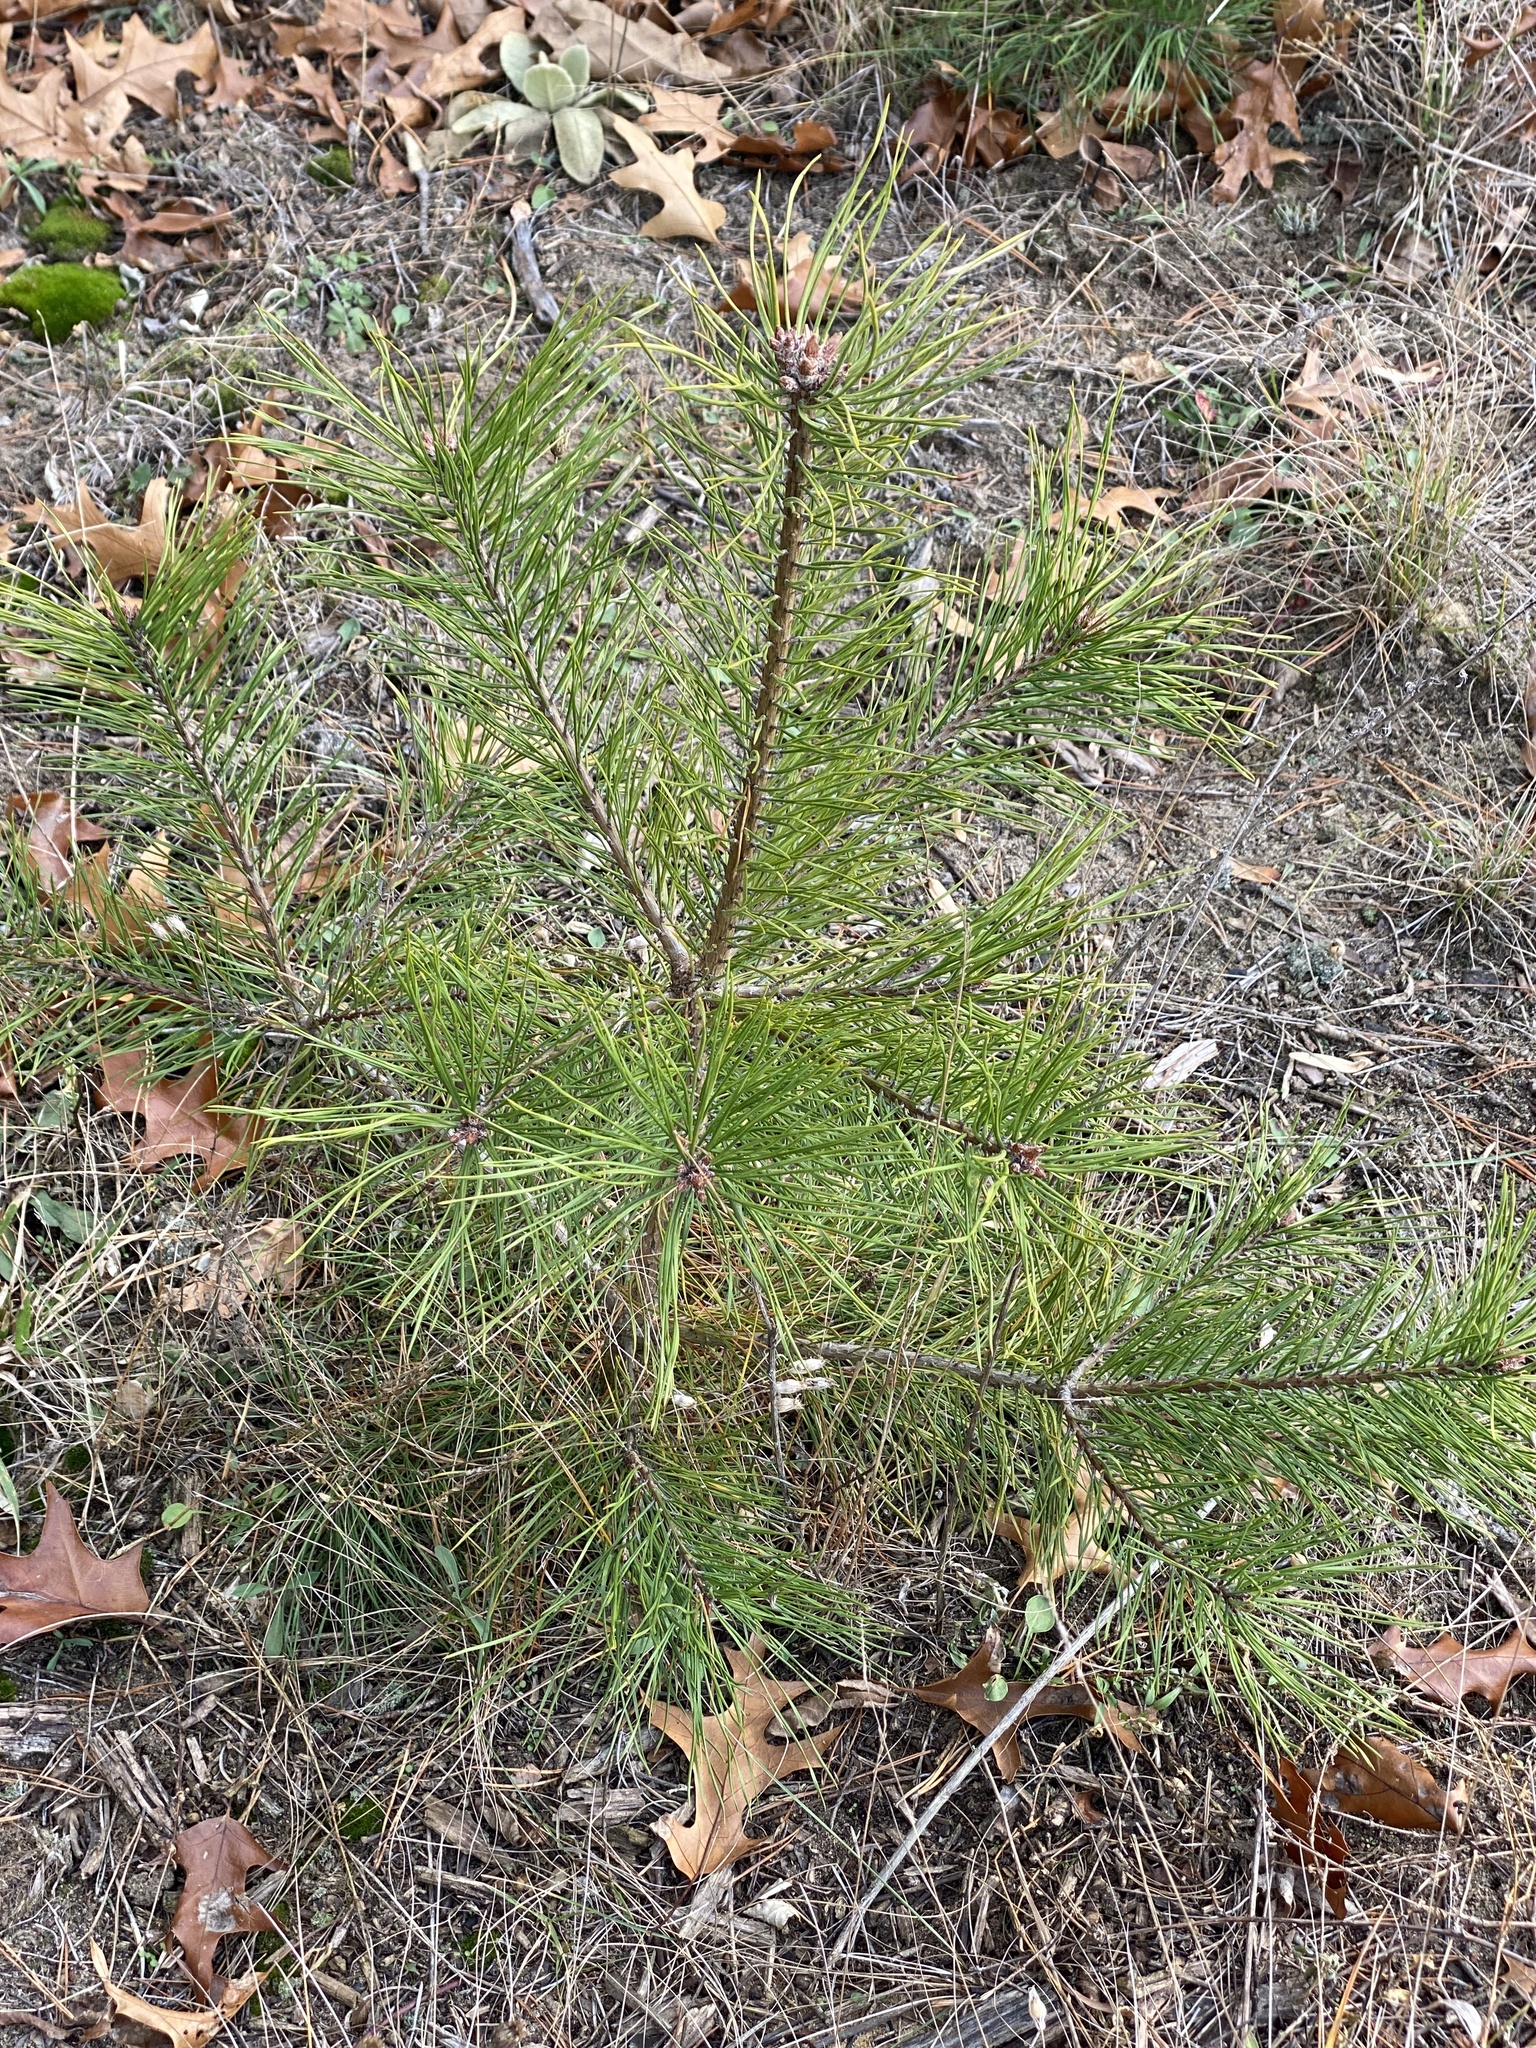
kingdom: Plantae
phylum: Tracheophyta
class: Pinopsida
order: Pinales
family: Pinaceae
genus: Pinus
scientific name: Pinus sylvestris
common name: Scots pine
